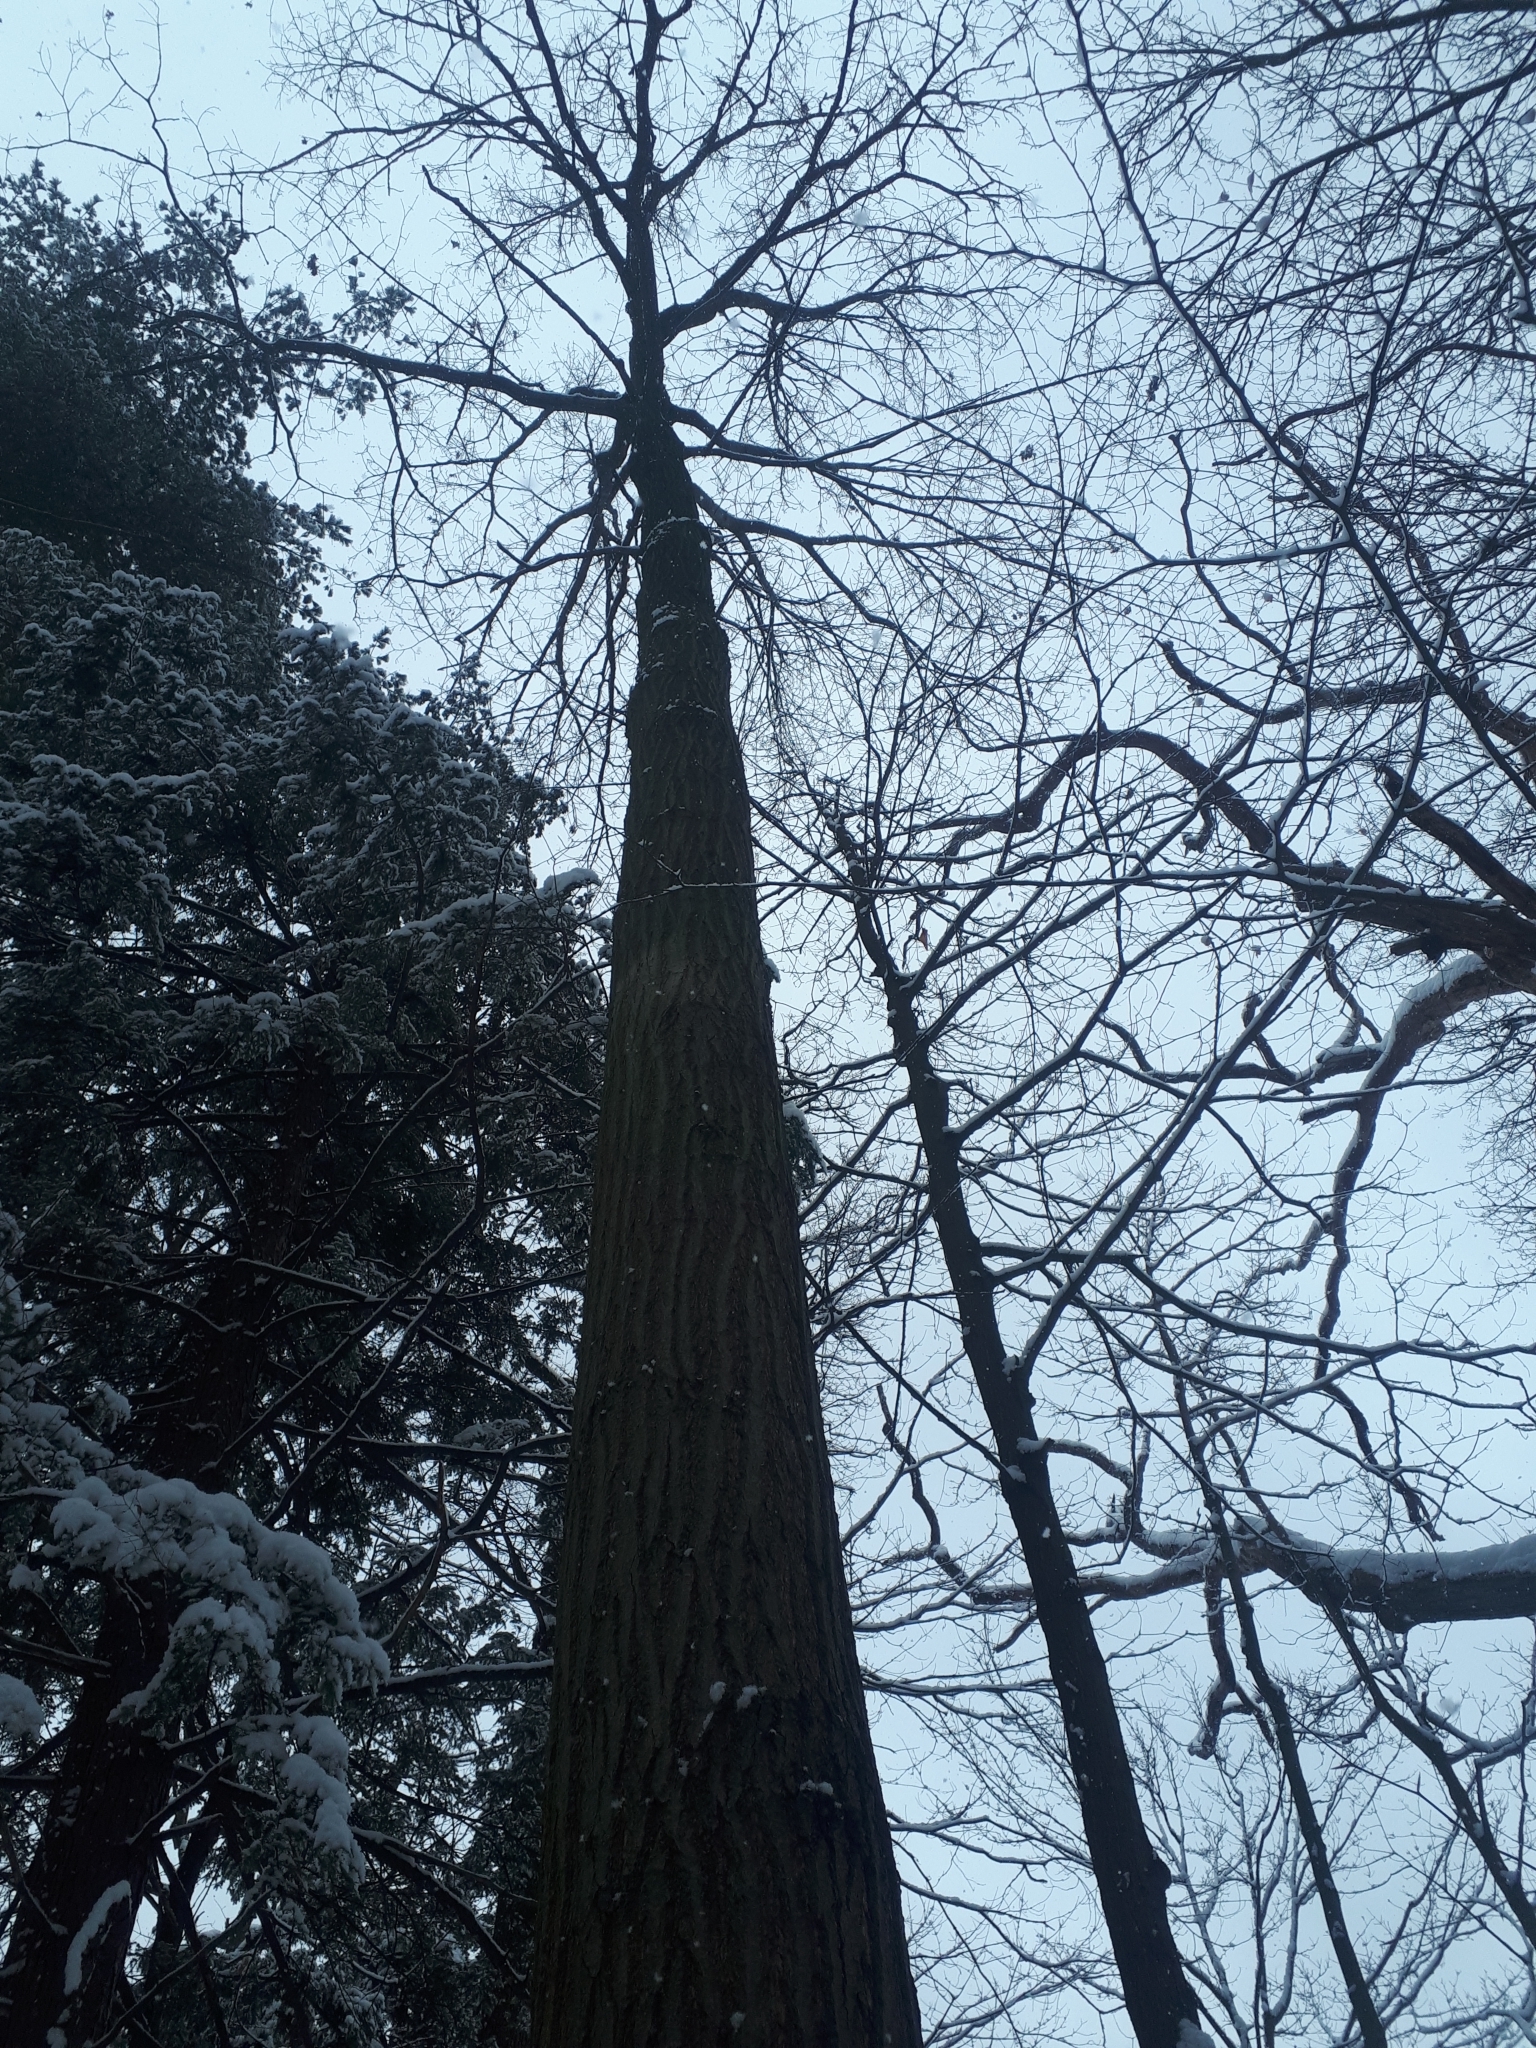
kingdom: Plantae
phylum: Tracheophyta
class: Magnoliopsida
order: Fagales
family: Fagaceae
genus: Quercus
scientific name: Quercus rubra
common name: Red oak
